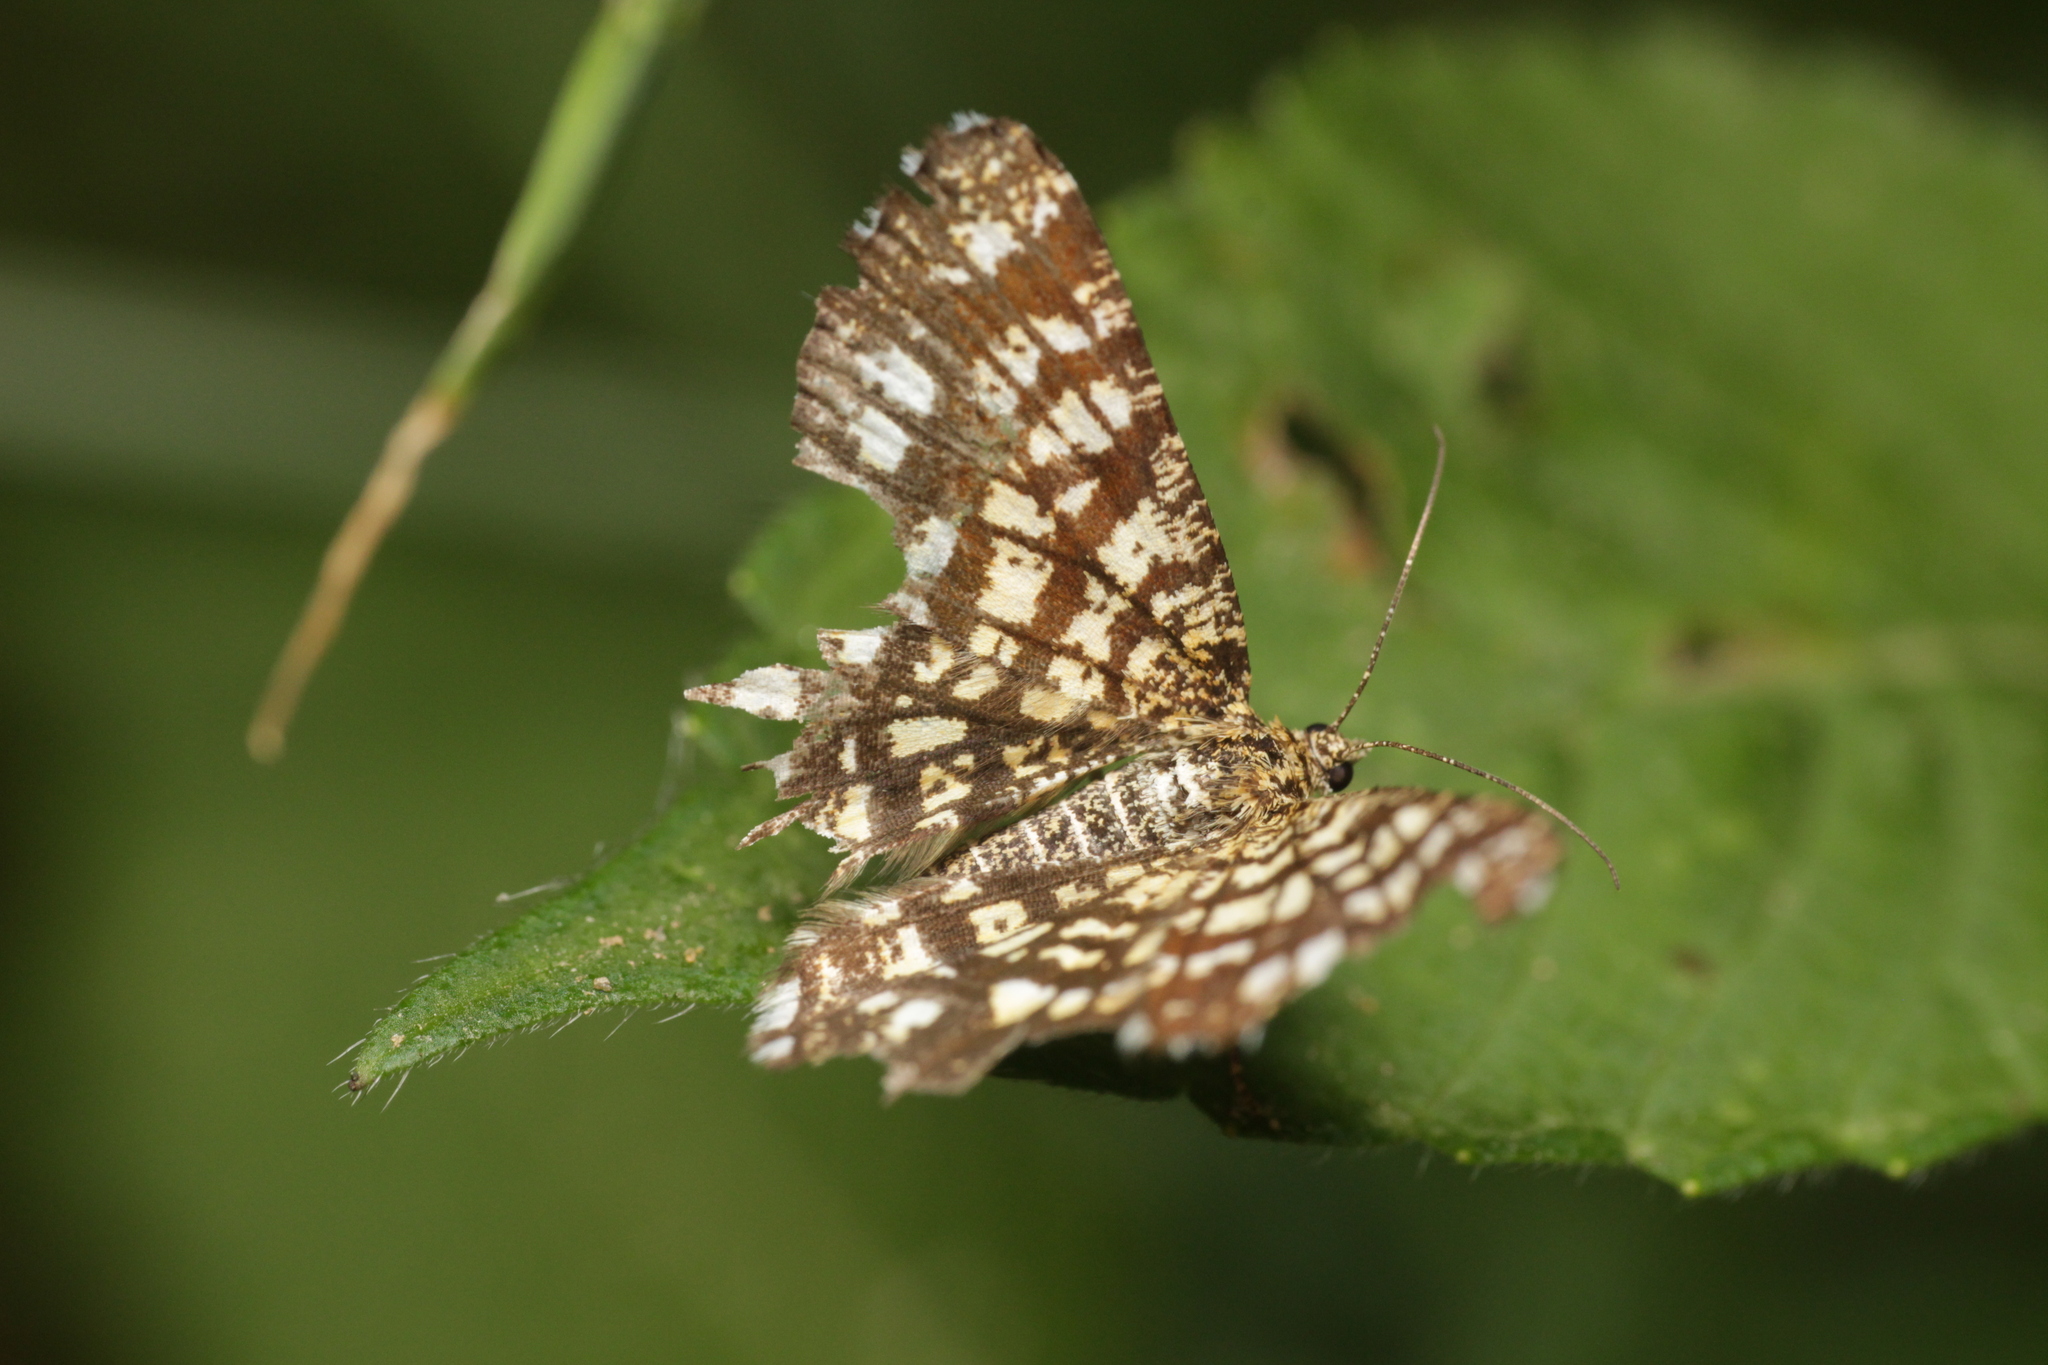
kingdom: Animalia
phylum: Arthropoda
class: Insecta
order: Lepidoptera
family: Geometridae
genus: Chiasmia
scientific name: Chiasmia clathrata
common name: Latticed heath
